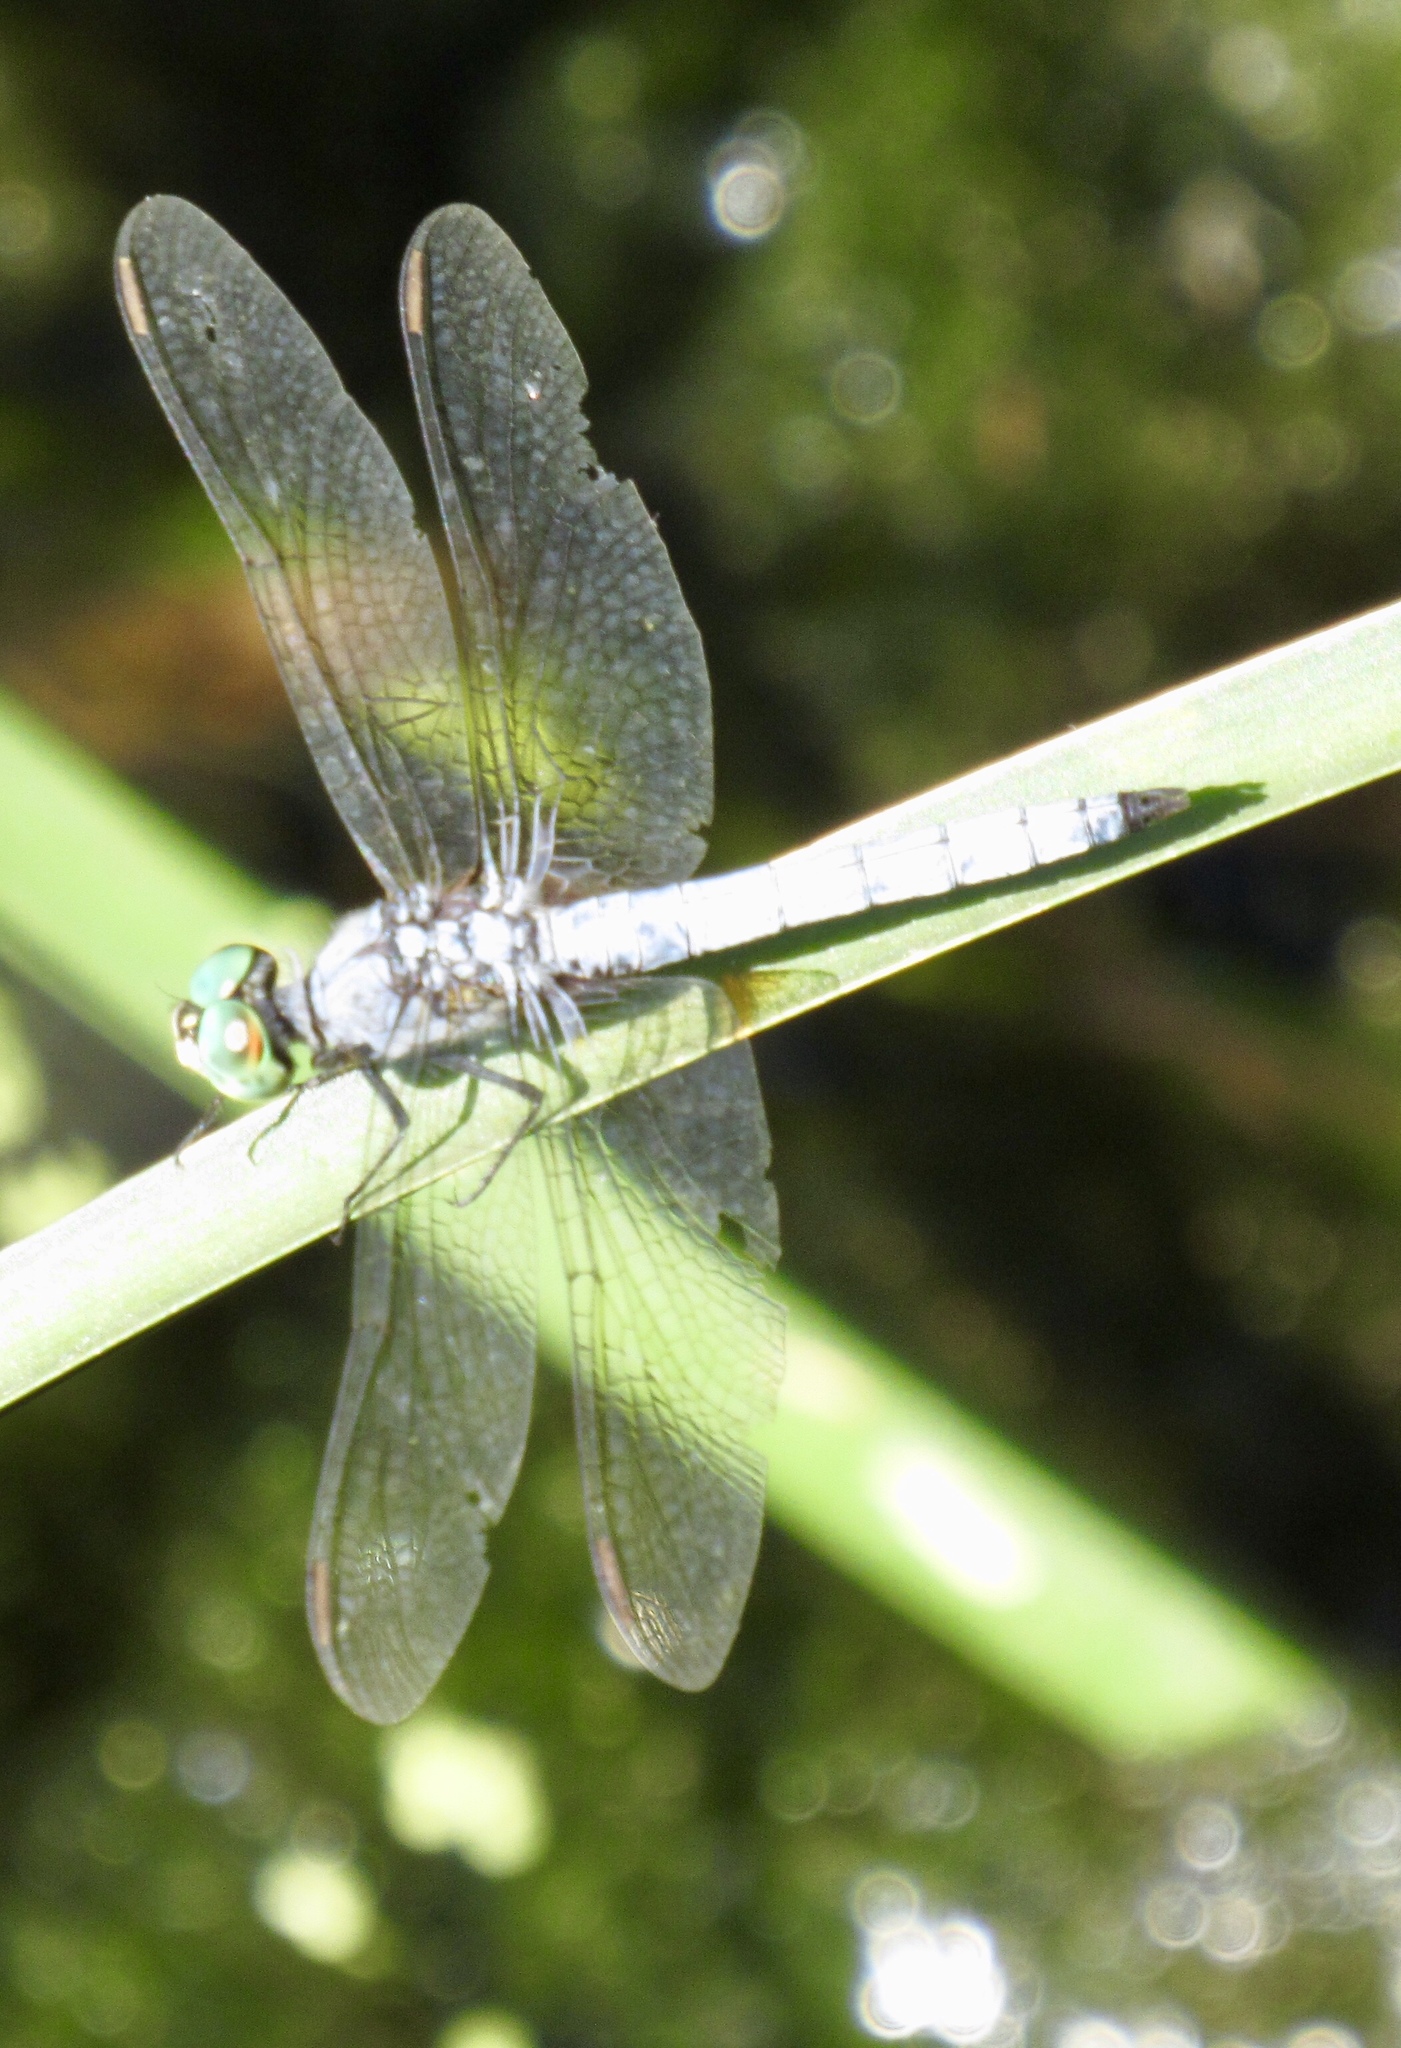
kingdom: Animalia
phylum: Arthropoda
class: Insecta
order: Odonata
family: Libellulidae
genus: Pachydiplax
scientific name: Pachydiplax longipennis
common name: Blue dasher
